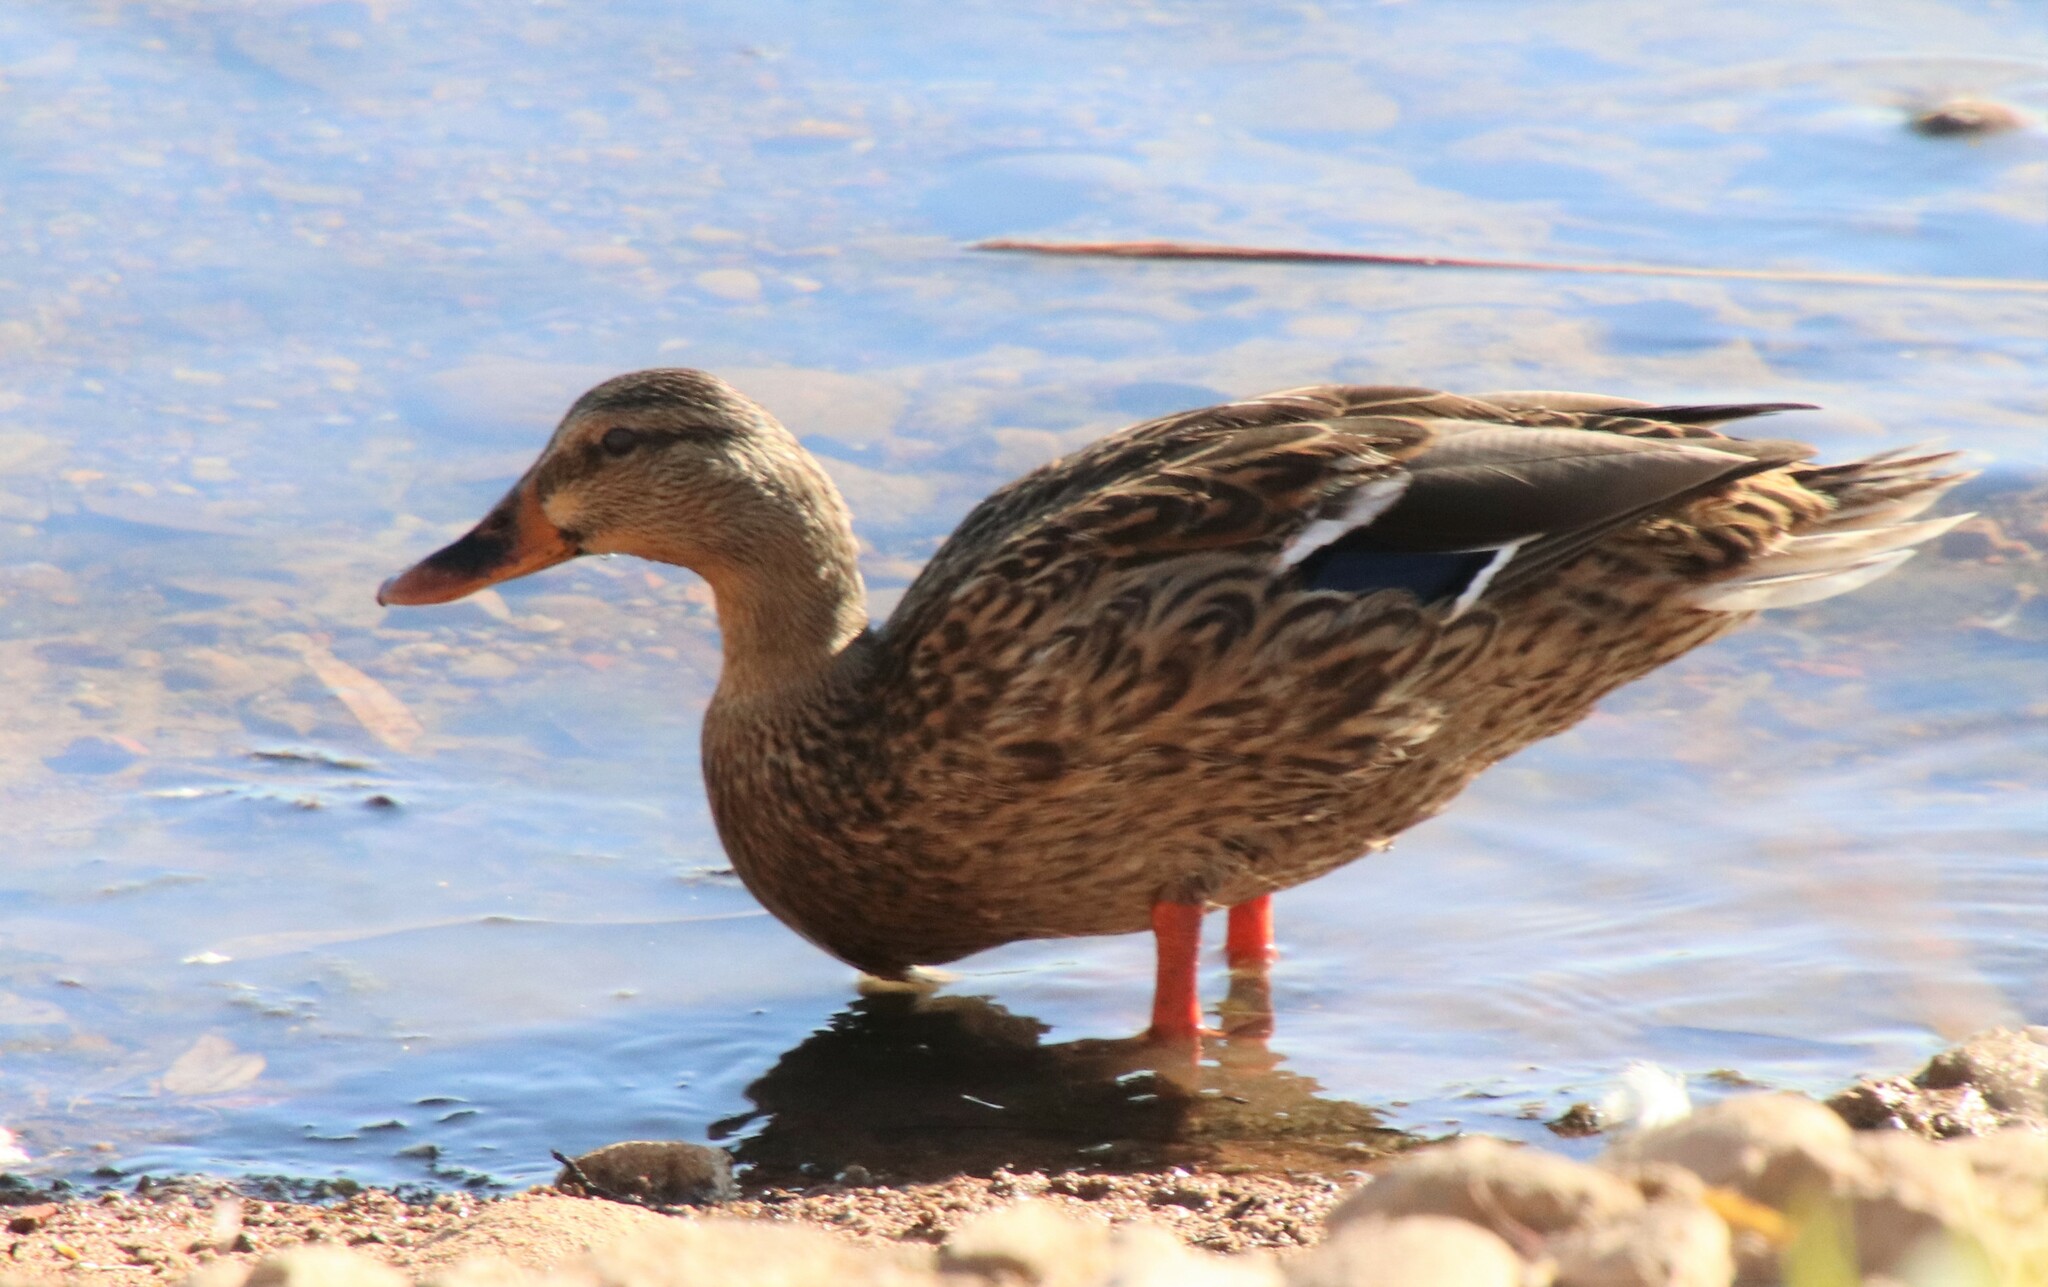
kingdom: Animalia
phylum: Chordata
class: Aves
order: Anseriformes
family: Anatidae
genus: Anas
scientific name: Anas platyrhynchos
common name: Mallard
